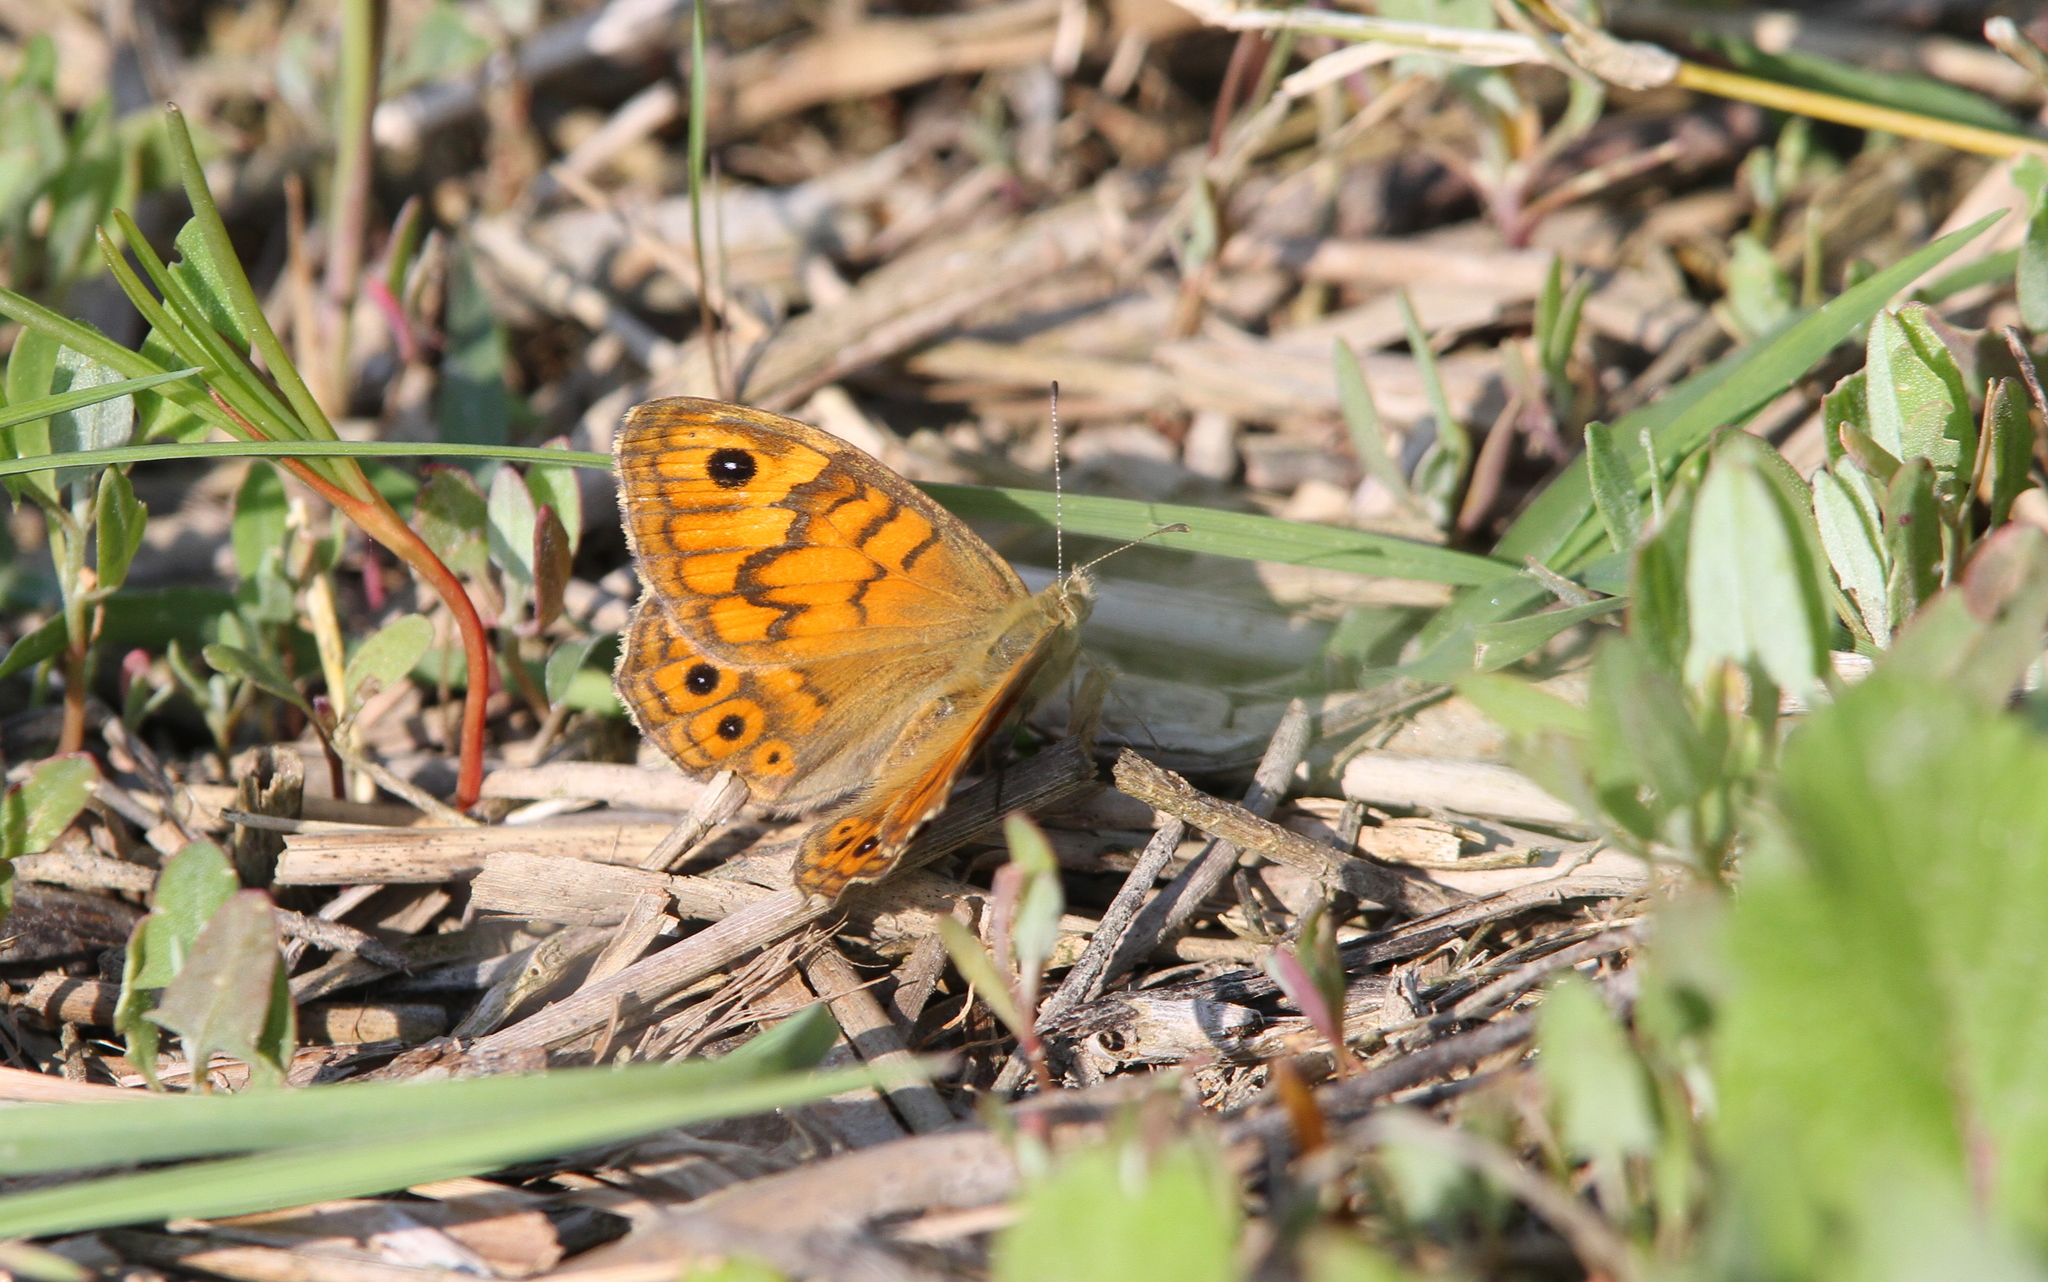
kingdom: Animalia
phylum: Arthropoda
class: Insecta
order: Lepidoptera
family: Nymphalidae
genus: Pararge
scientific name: Pararge Lasiommata megera
